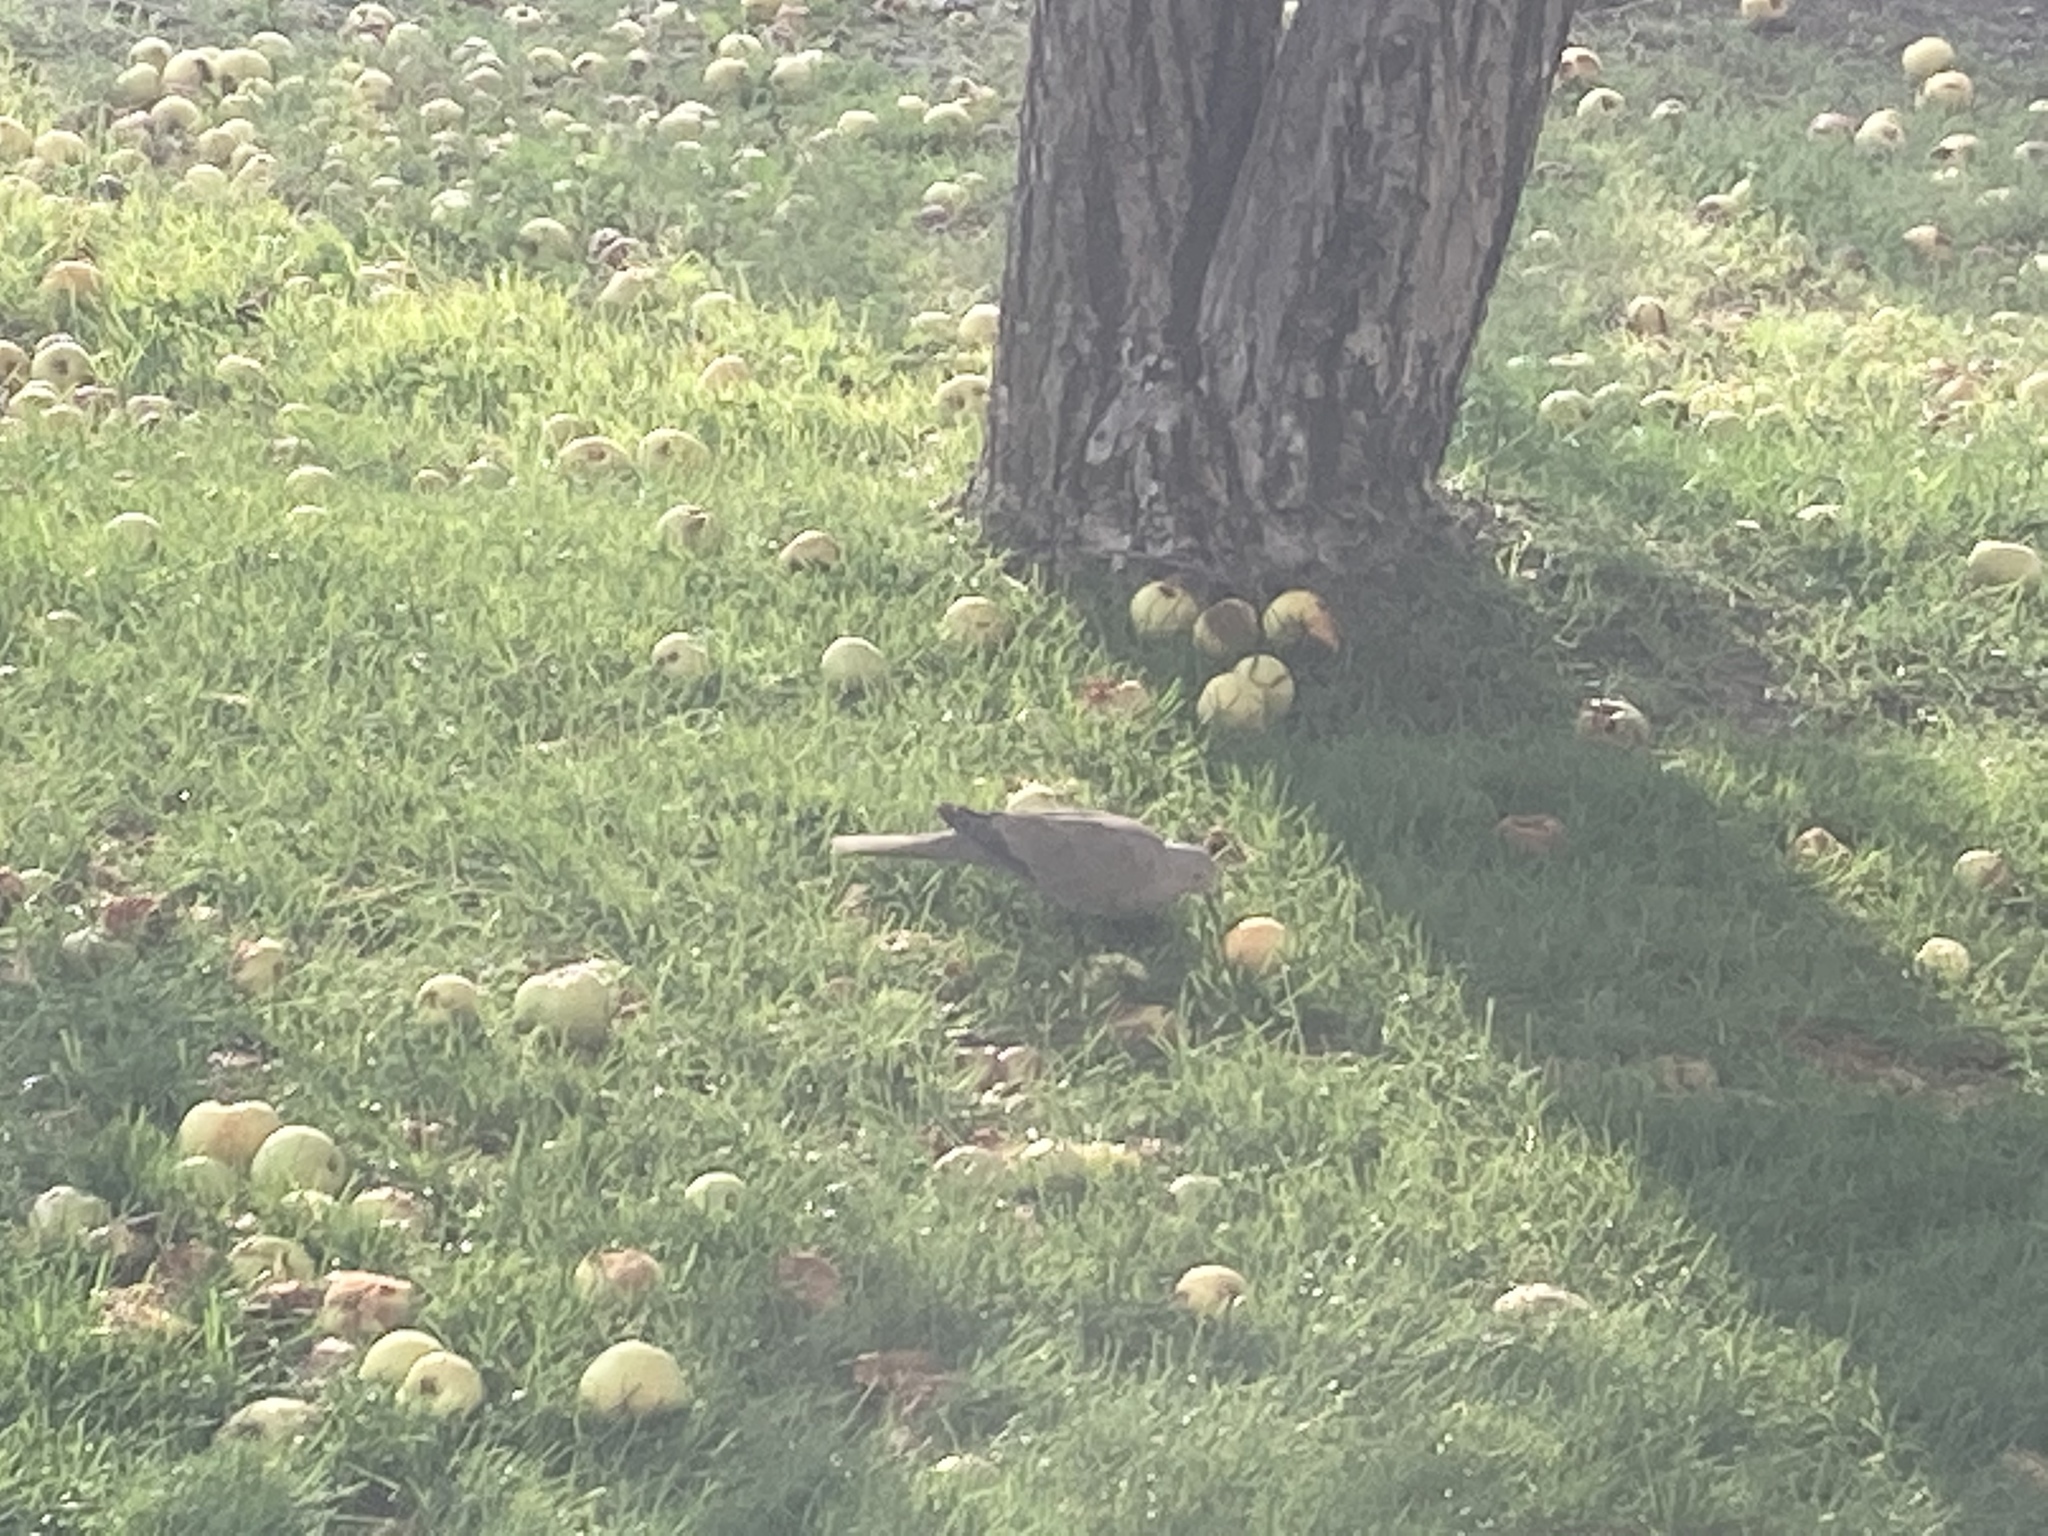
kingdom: Animalia
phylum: Chordata
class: Aves
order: Columbiformes
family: Columbidae
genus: Streptopelia
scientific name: Streptopelia decaocto
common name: Eurasian collared dove
